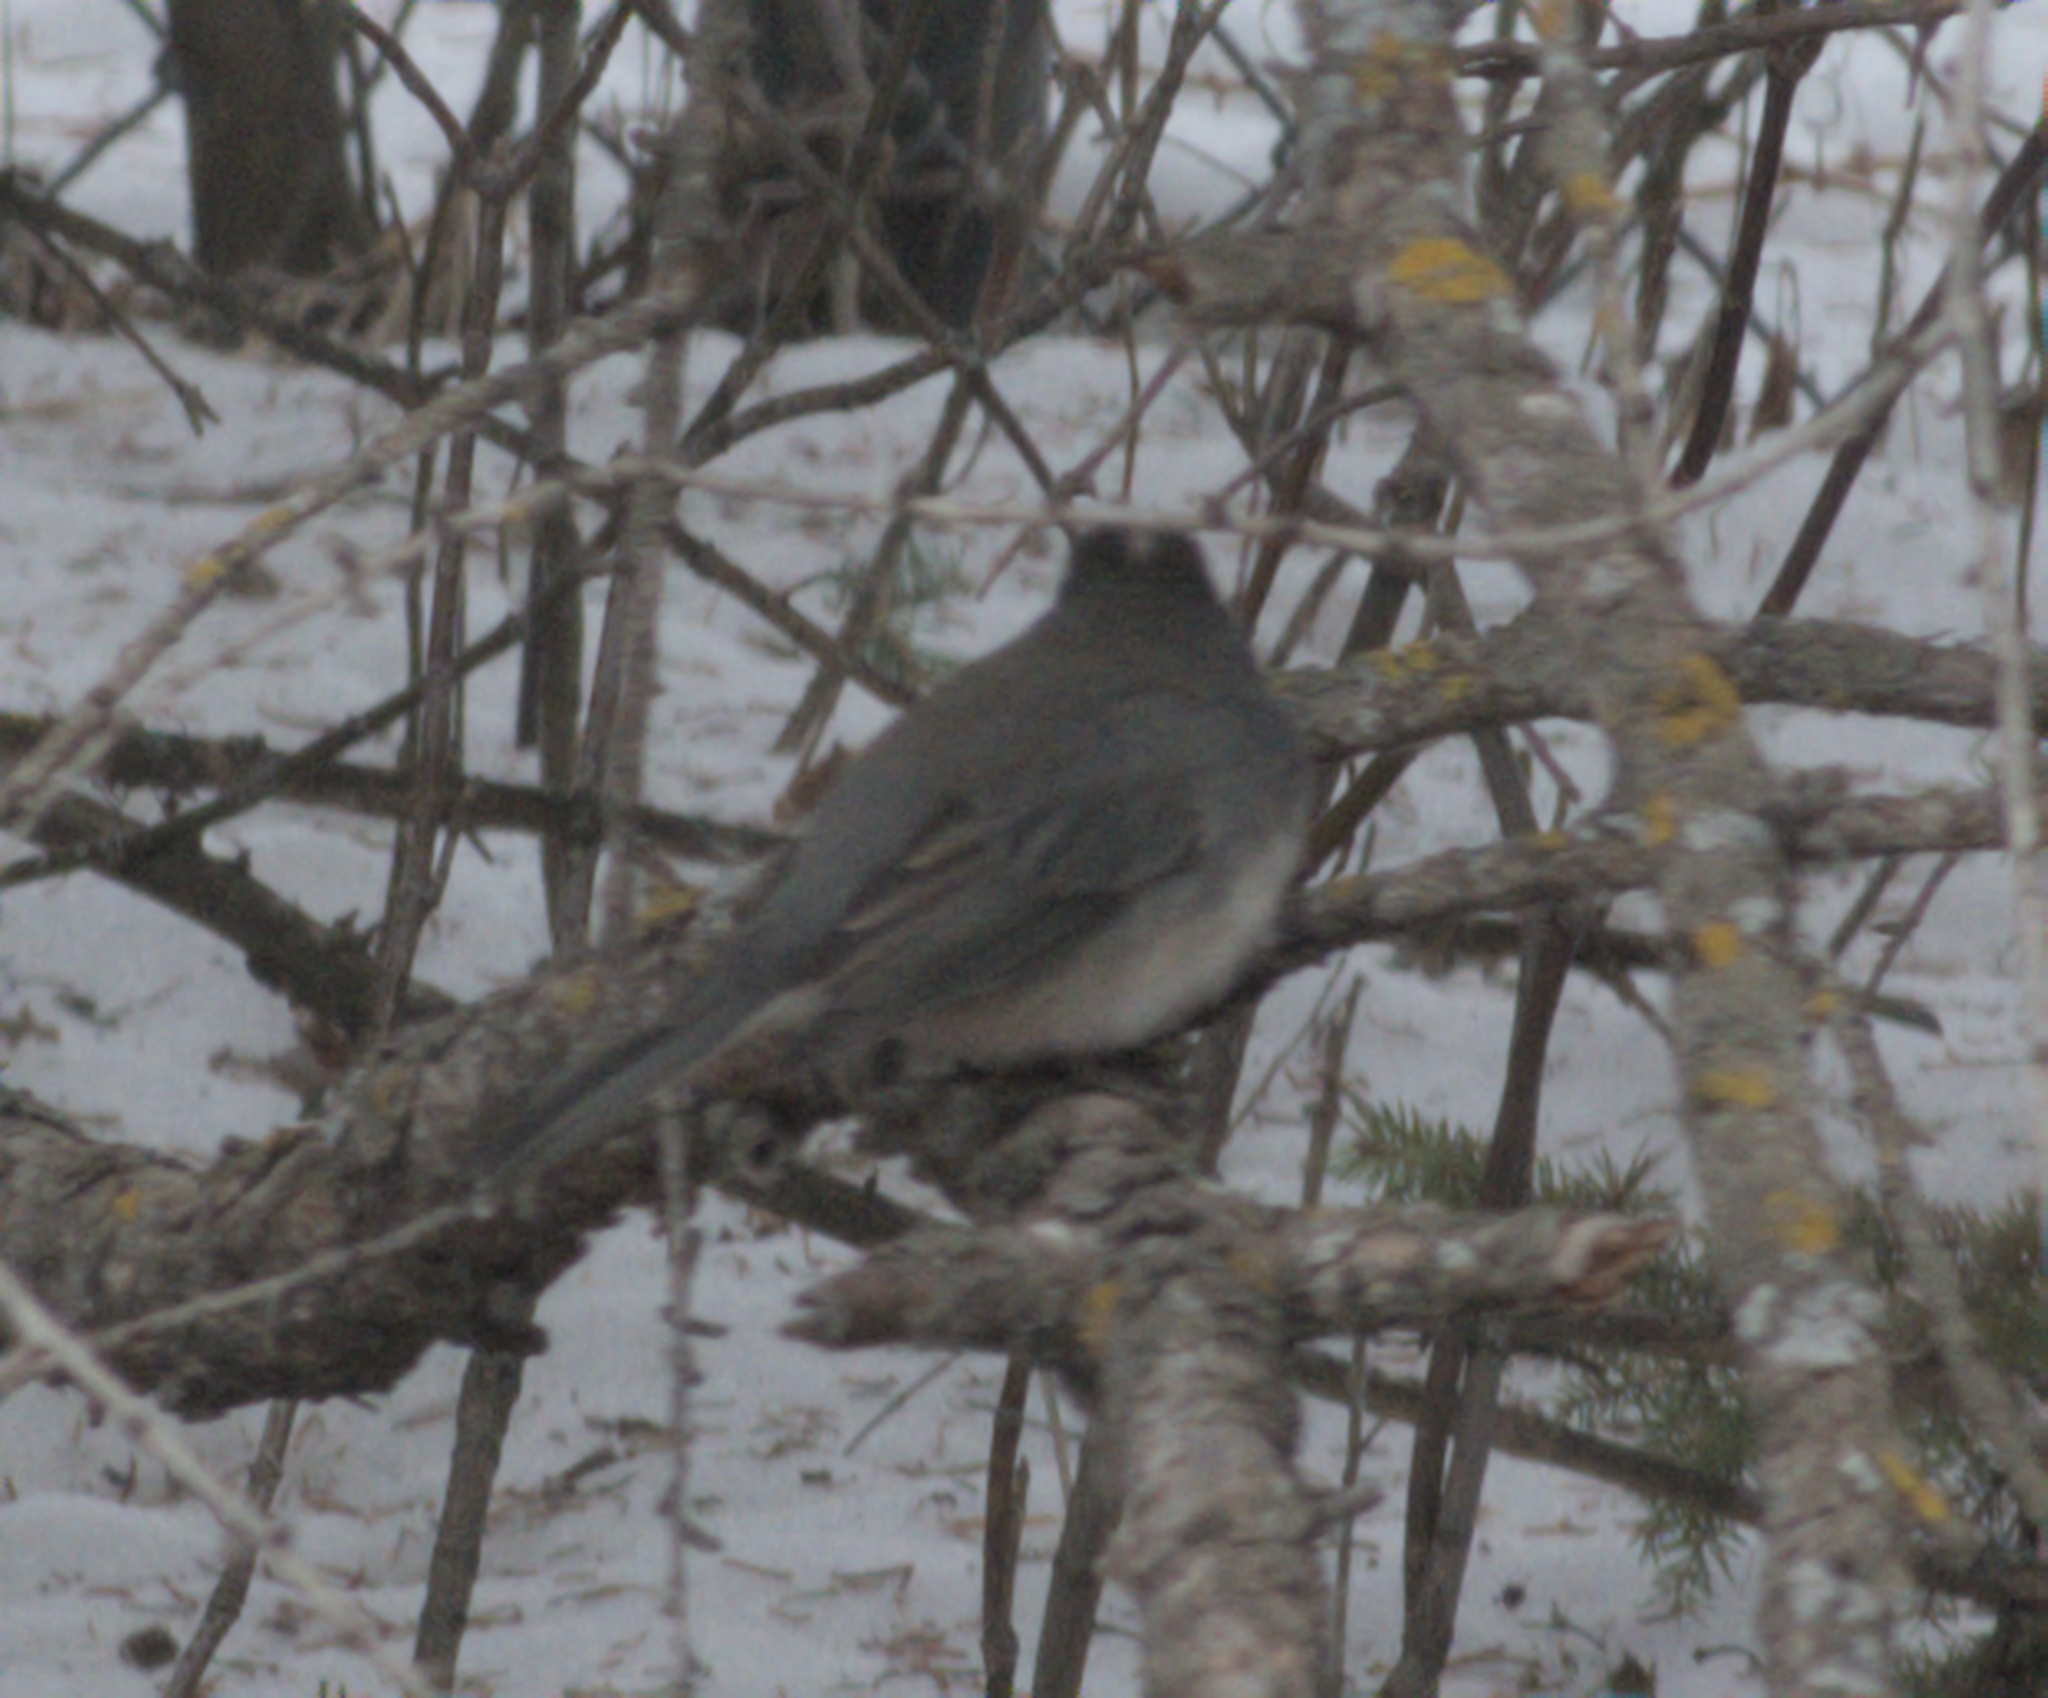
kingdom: Animalia
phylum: Chordata
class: Aves
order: Passeriformes
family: Passerellidae
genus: Junco
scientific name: Junco hyemalis
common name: Dark-eyed junco
